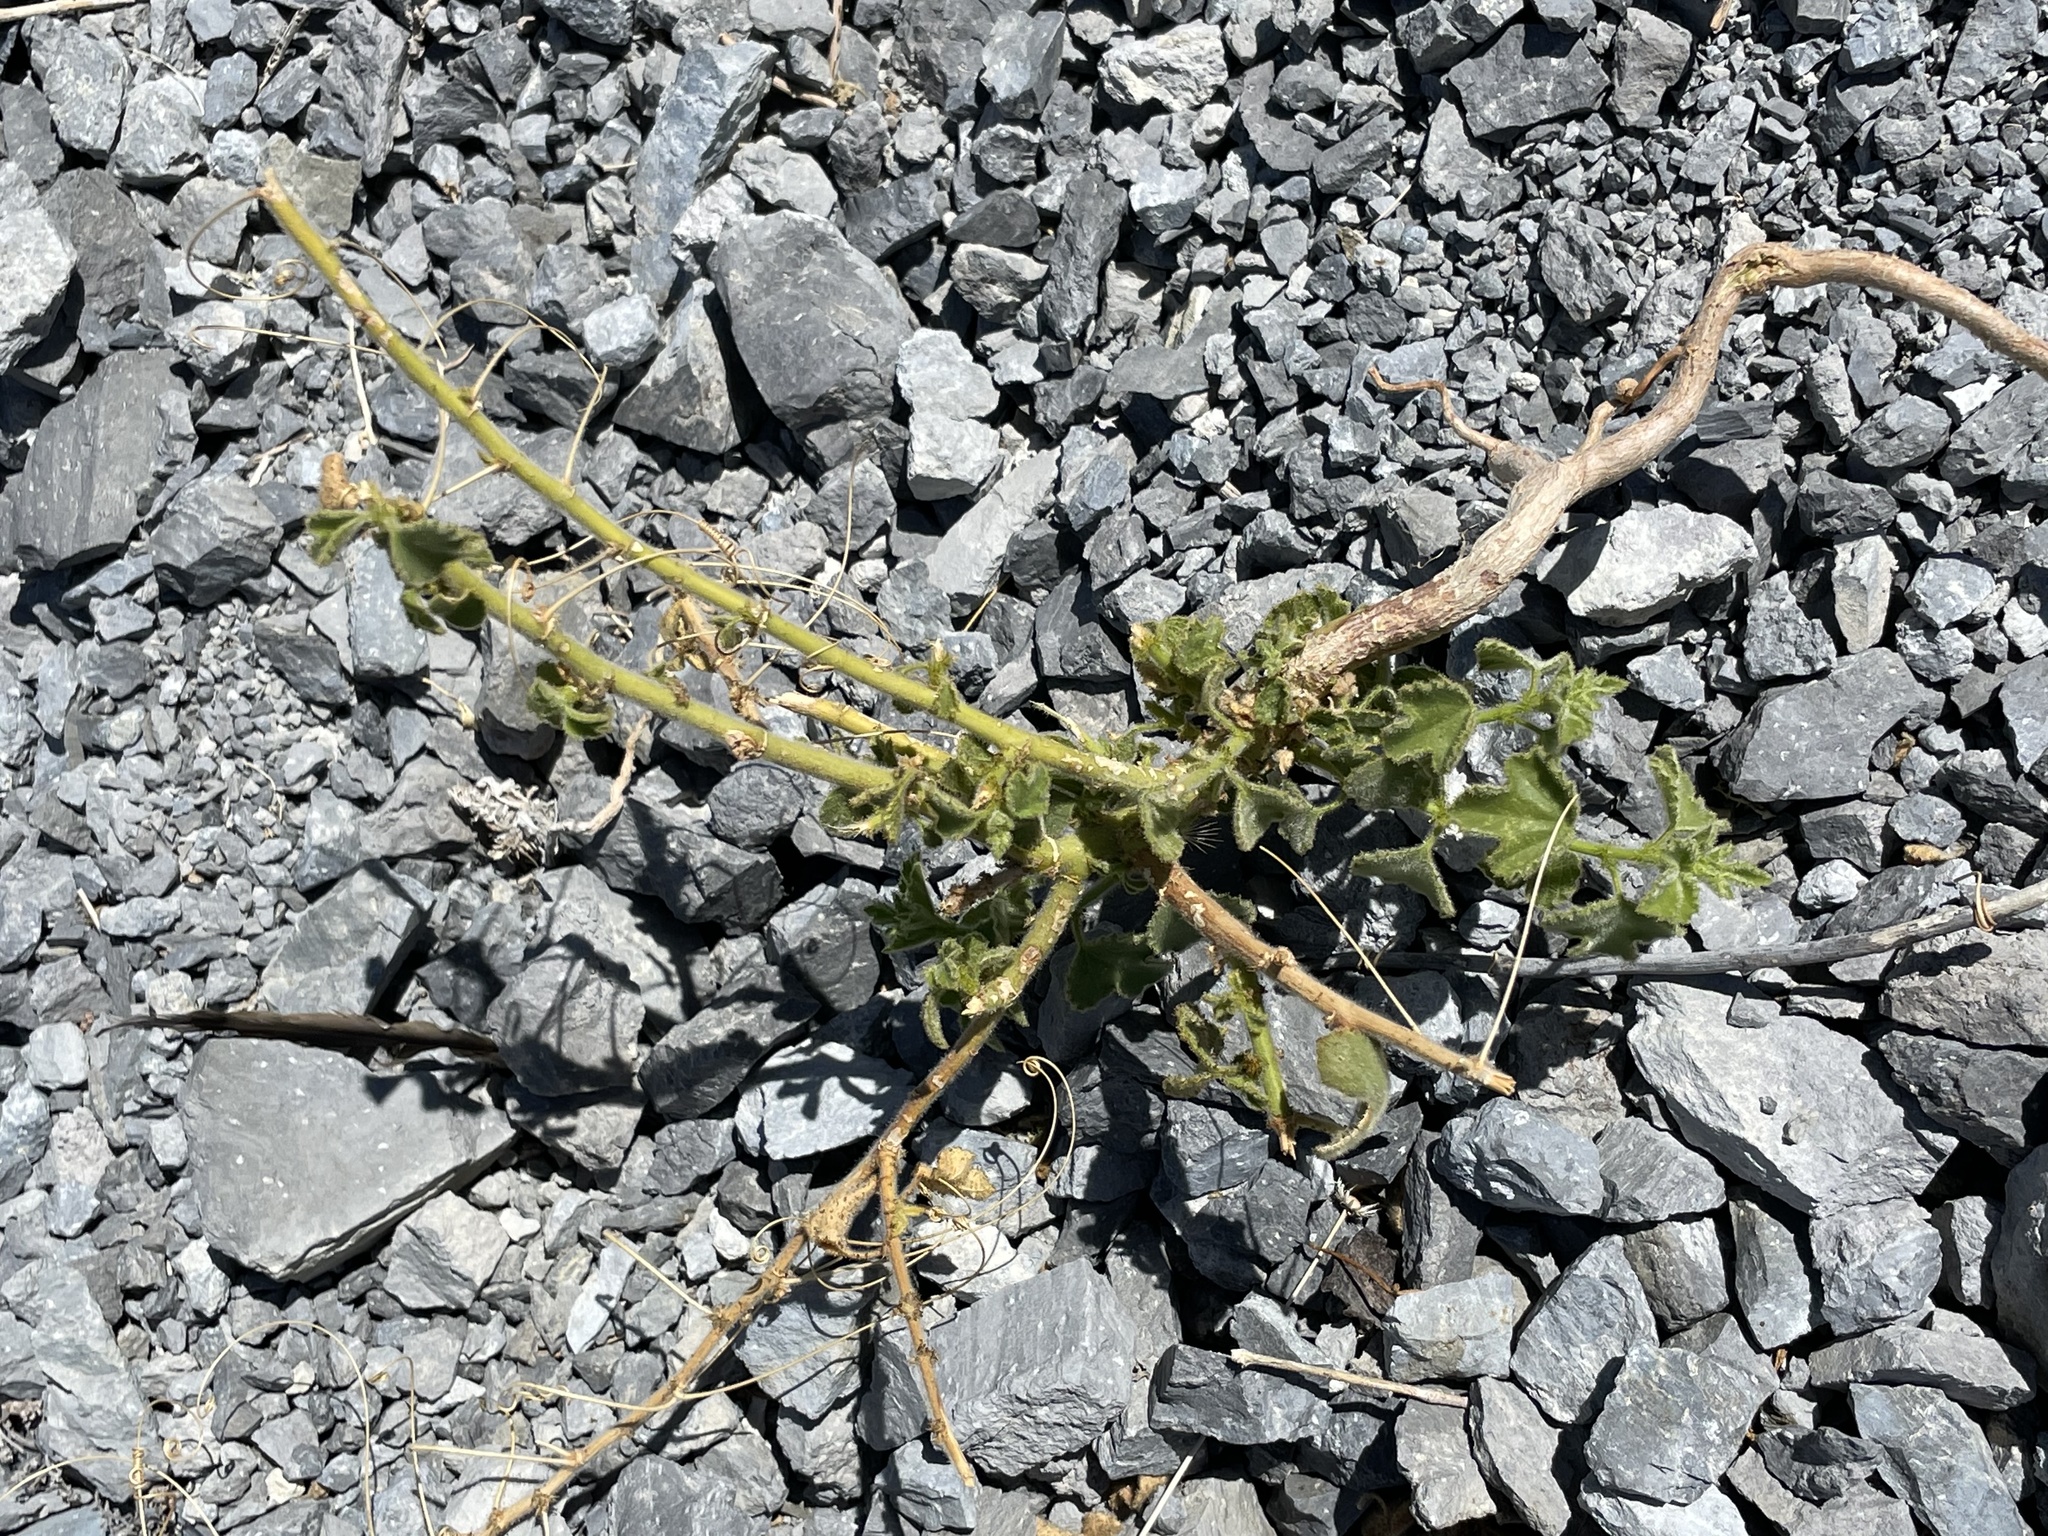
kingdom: Plantae
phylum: Tracheophyta
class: Magnoliopsida
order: Malpighiales
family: Passifloraceae
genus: Passiflora
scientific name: Passiflora arida
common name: Desert passionflower
